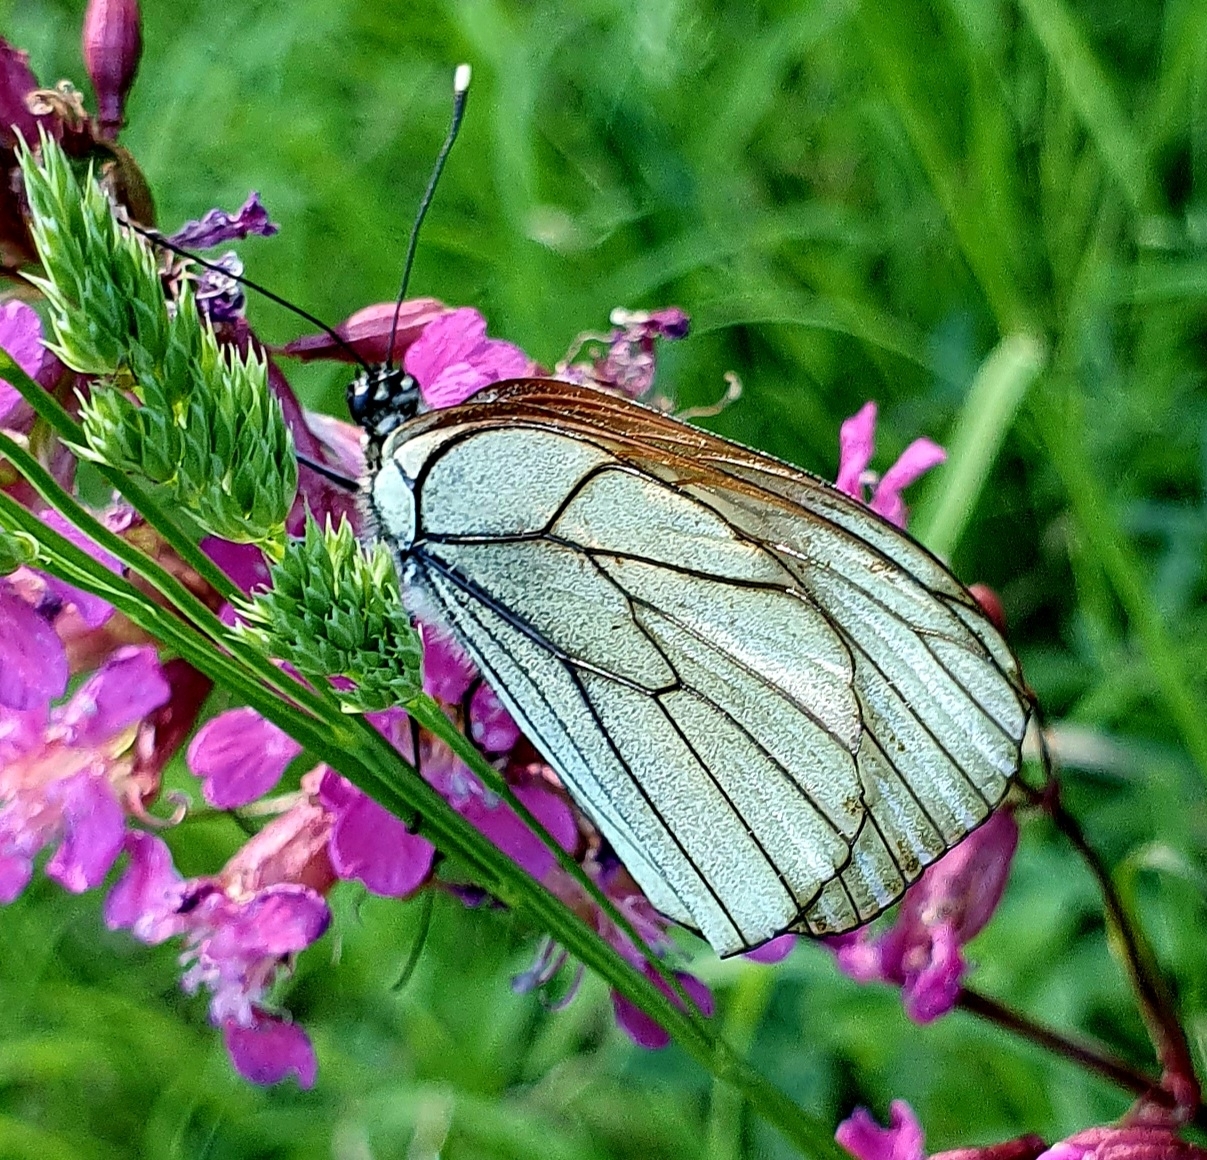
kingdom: Animalia
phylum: Arthropoda
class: Insecta
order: Lepidoptera
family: Pieridae
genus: Aporia
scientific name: Aporia crataegi
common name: Black-veined white
